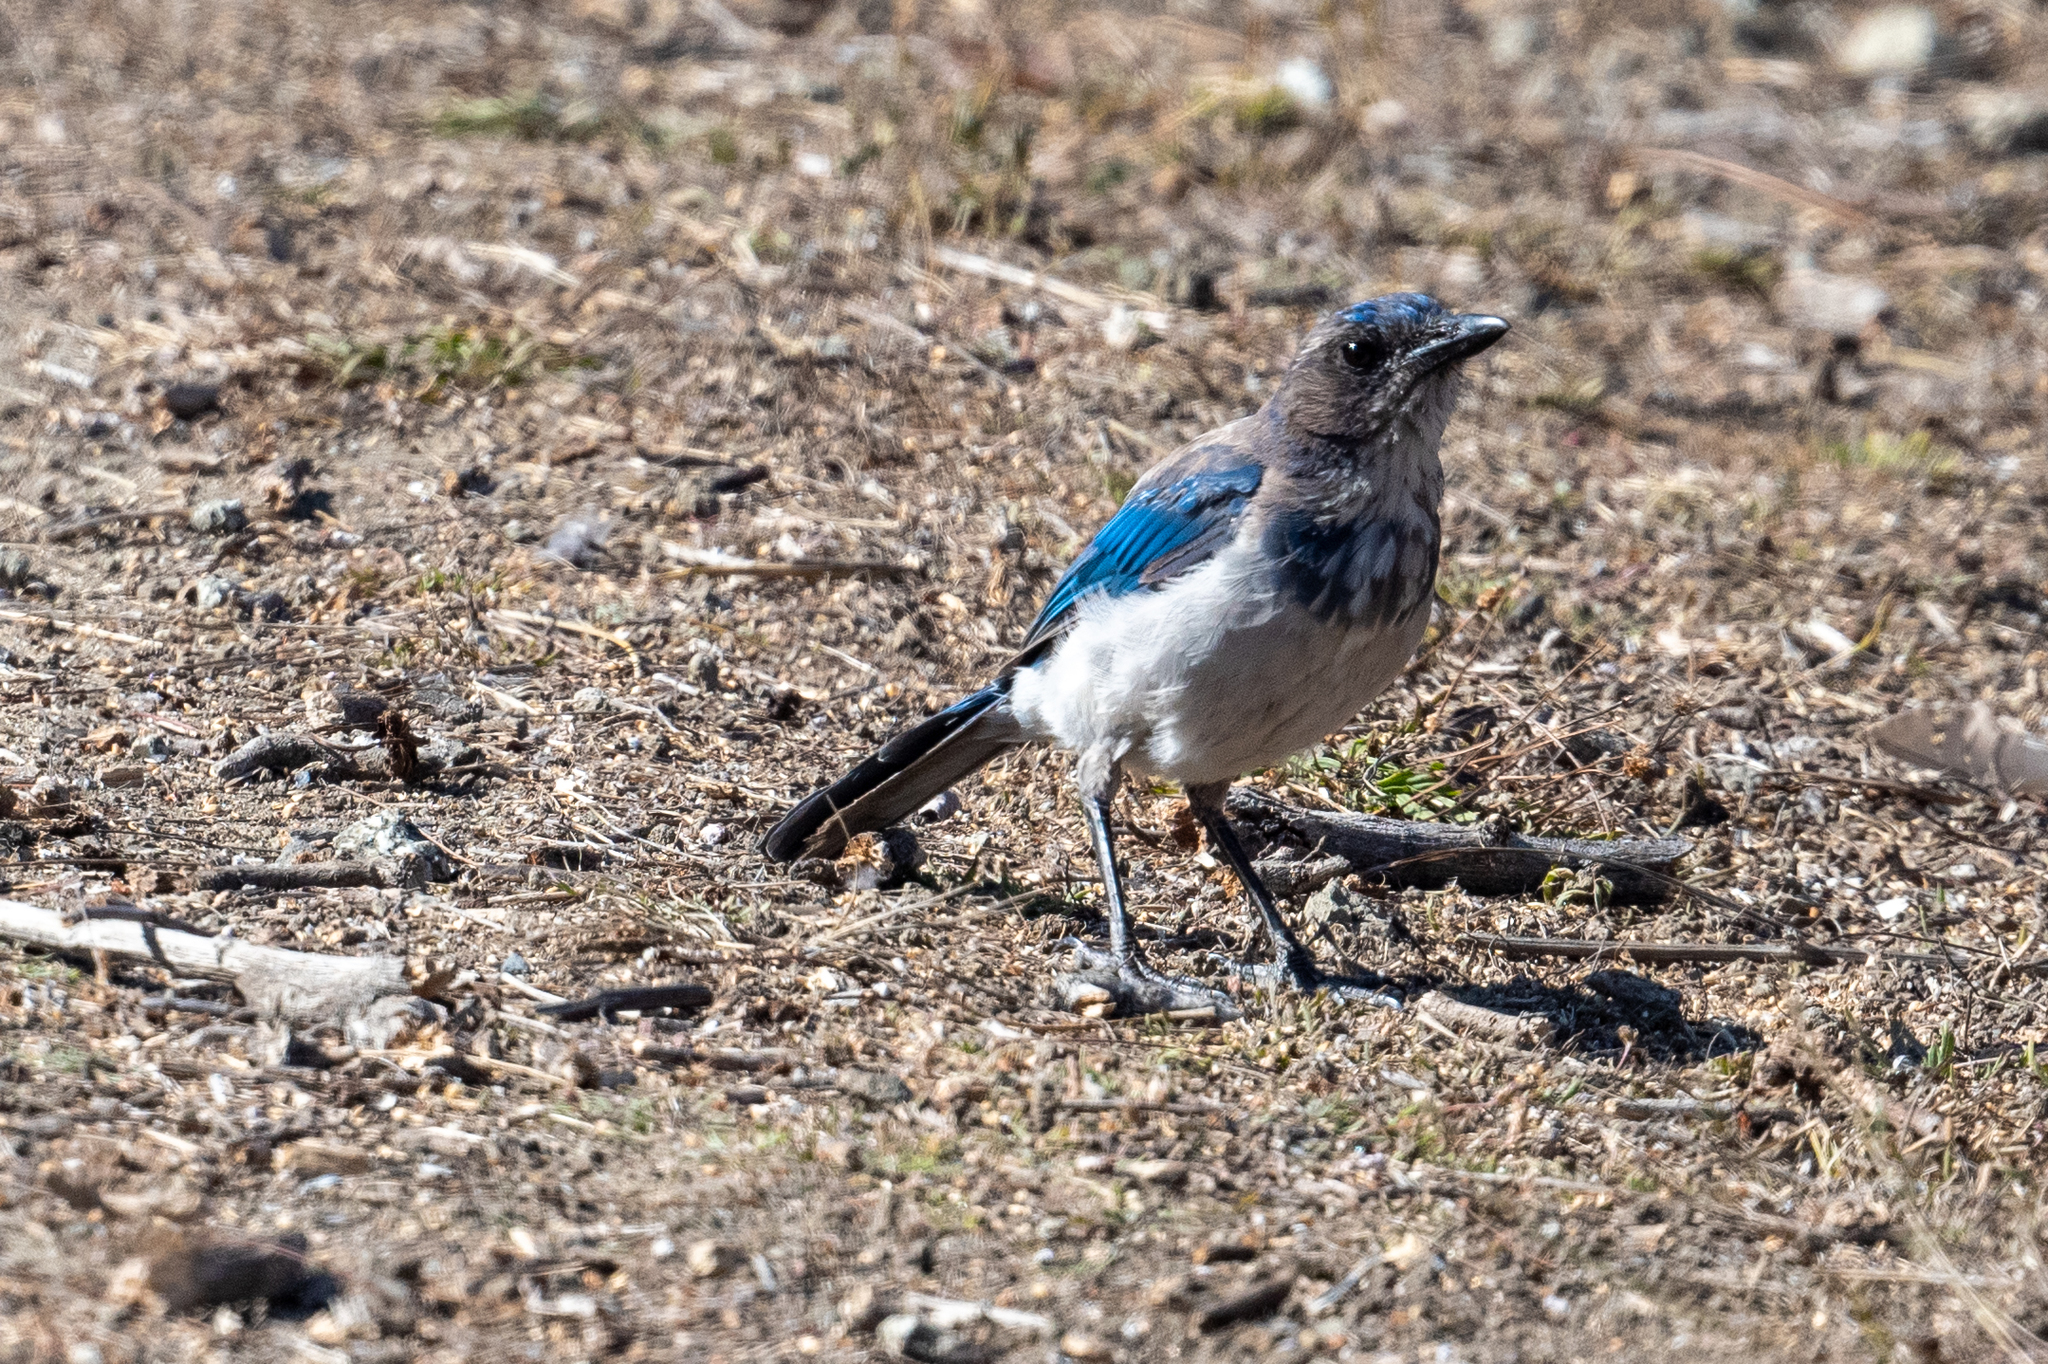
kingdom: Animalia
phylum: Chordata
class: Aves
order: Passeriformes
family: Corvidae
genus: Aphelocoma
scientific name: Aphelocoma californica
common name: California scrub-jay
